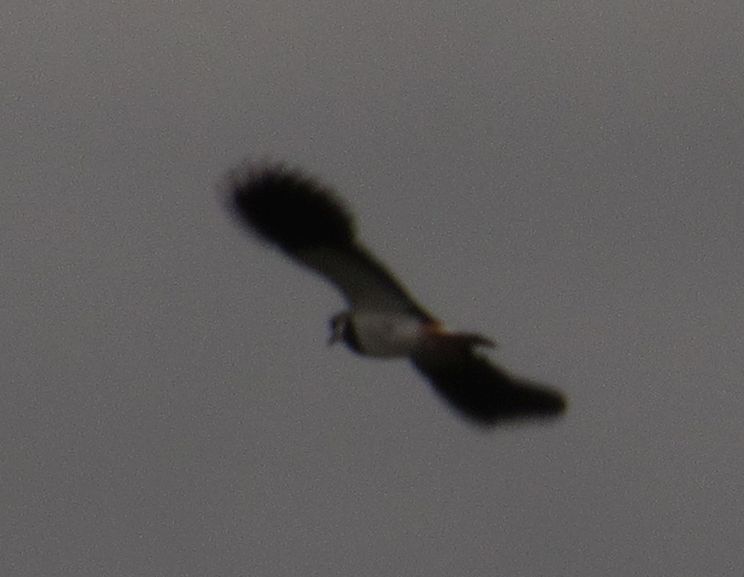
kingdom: Animalia
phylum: Chordata
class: Aves
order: Charadriiformes
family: Charadriidae
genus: Vanellus
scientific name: Vanellus vanellus
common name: Northern lapwing
